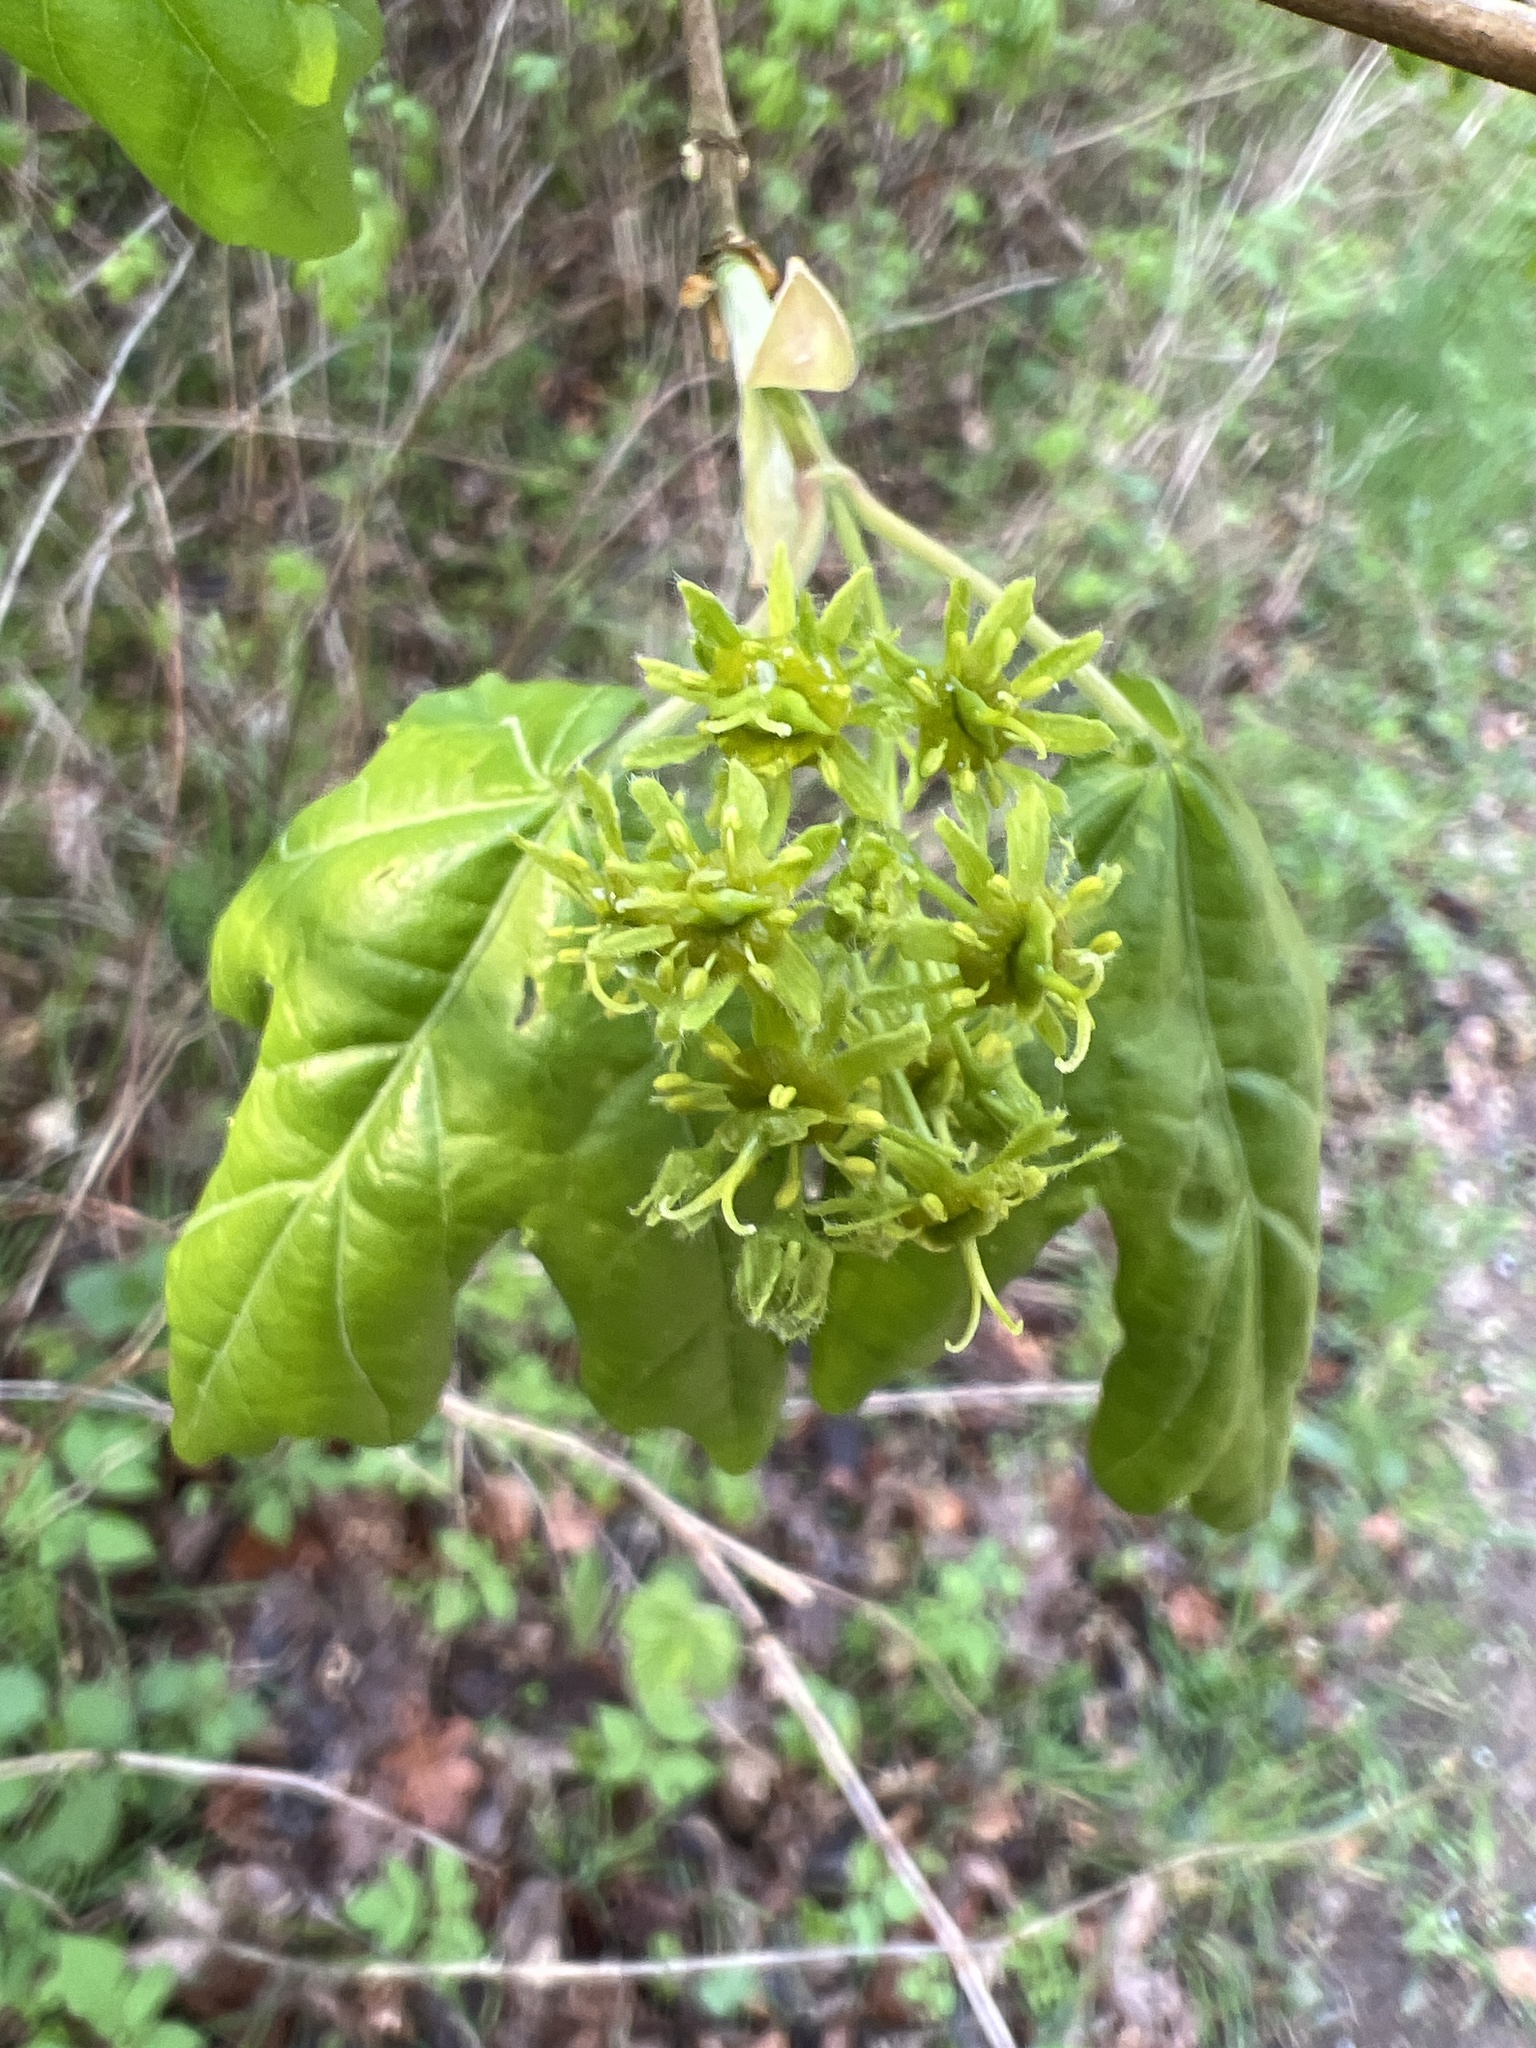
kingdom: Plantae
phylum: Tracheophyta
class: Magnoliopsida
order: Sapindales
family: Sapindaceae
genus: Acer
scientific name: Acer campestre
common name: Field maple
